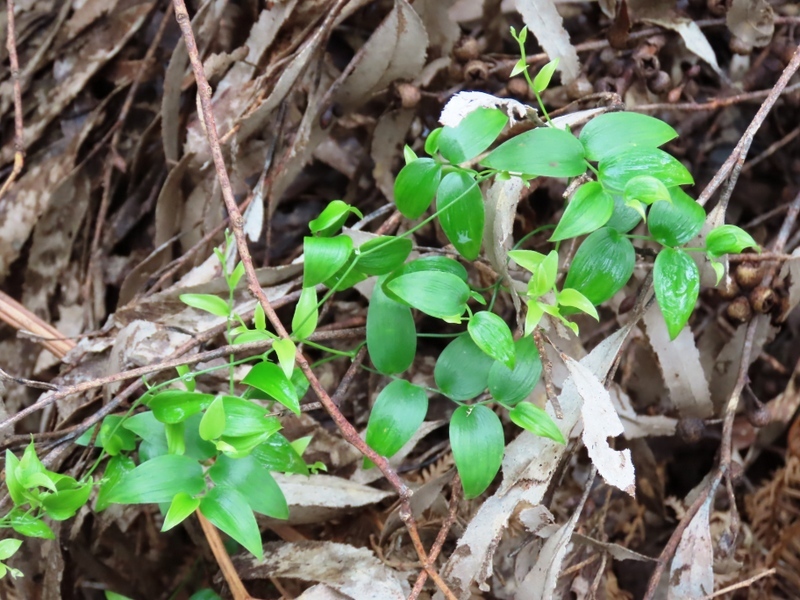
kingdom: Plantae
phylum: Tracheophyta
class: Liliopsida
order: Asparagales
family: Asparagaceae
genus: Asparagus
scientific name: Asparagus asparagoides
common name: African asparagus fern
